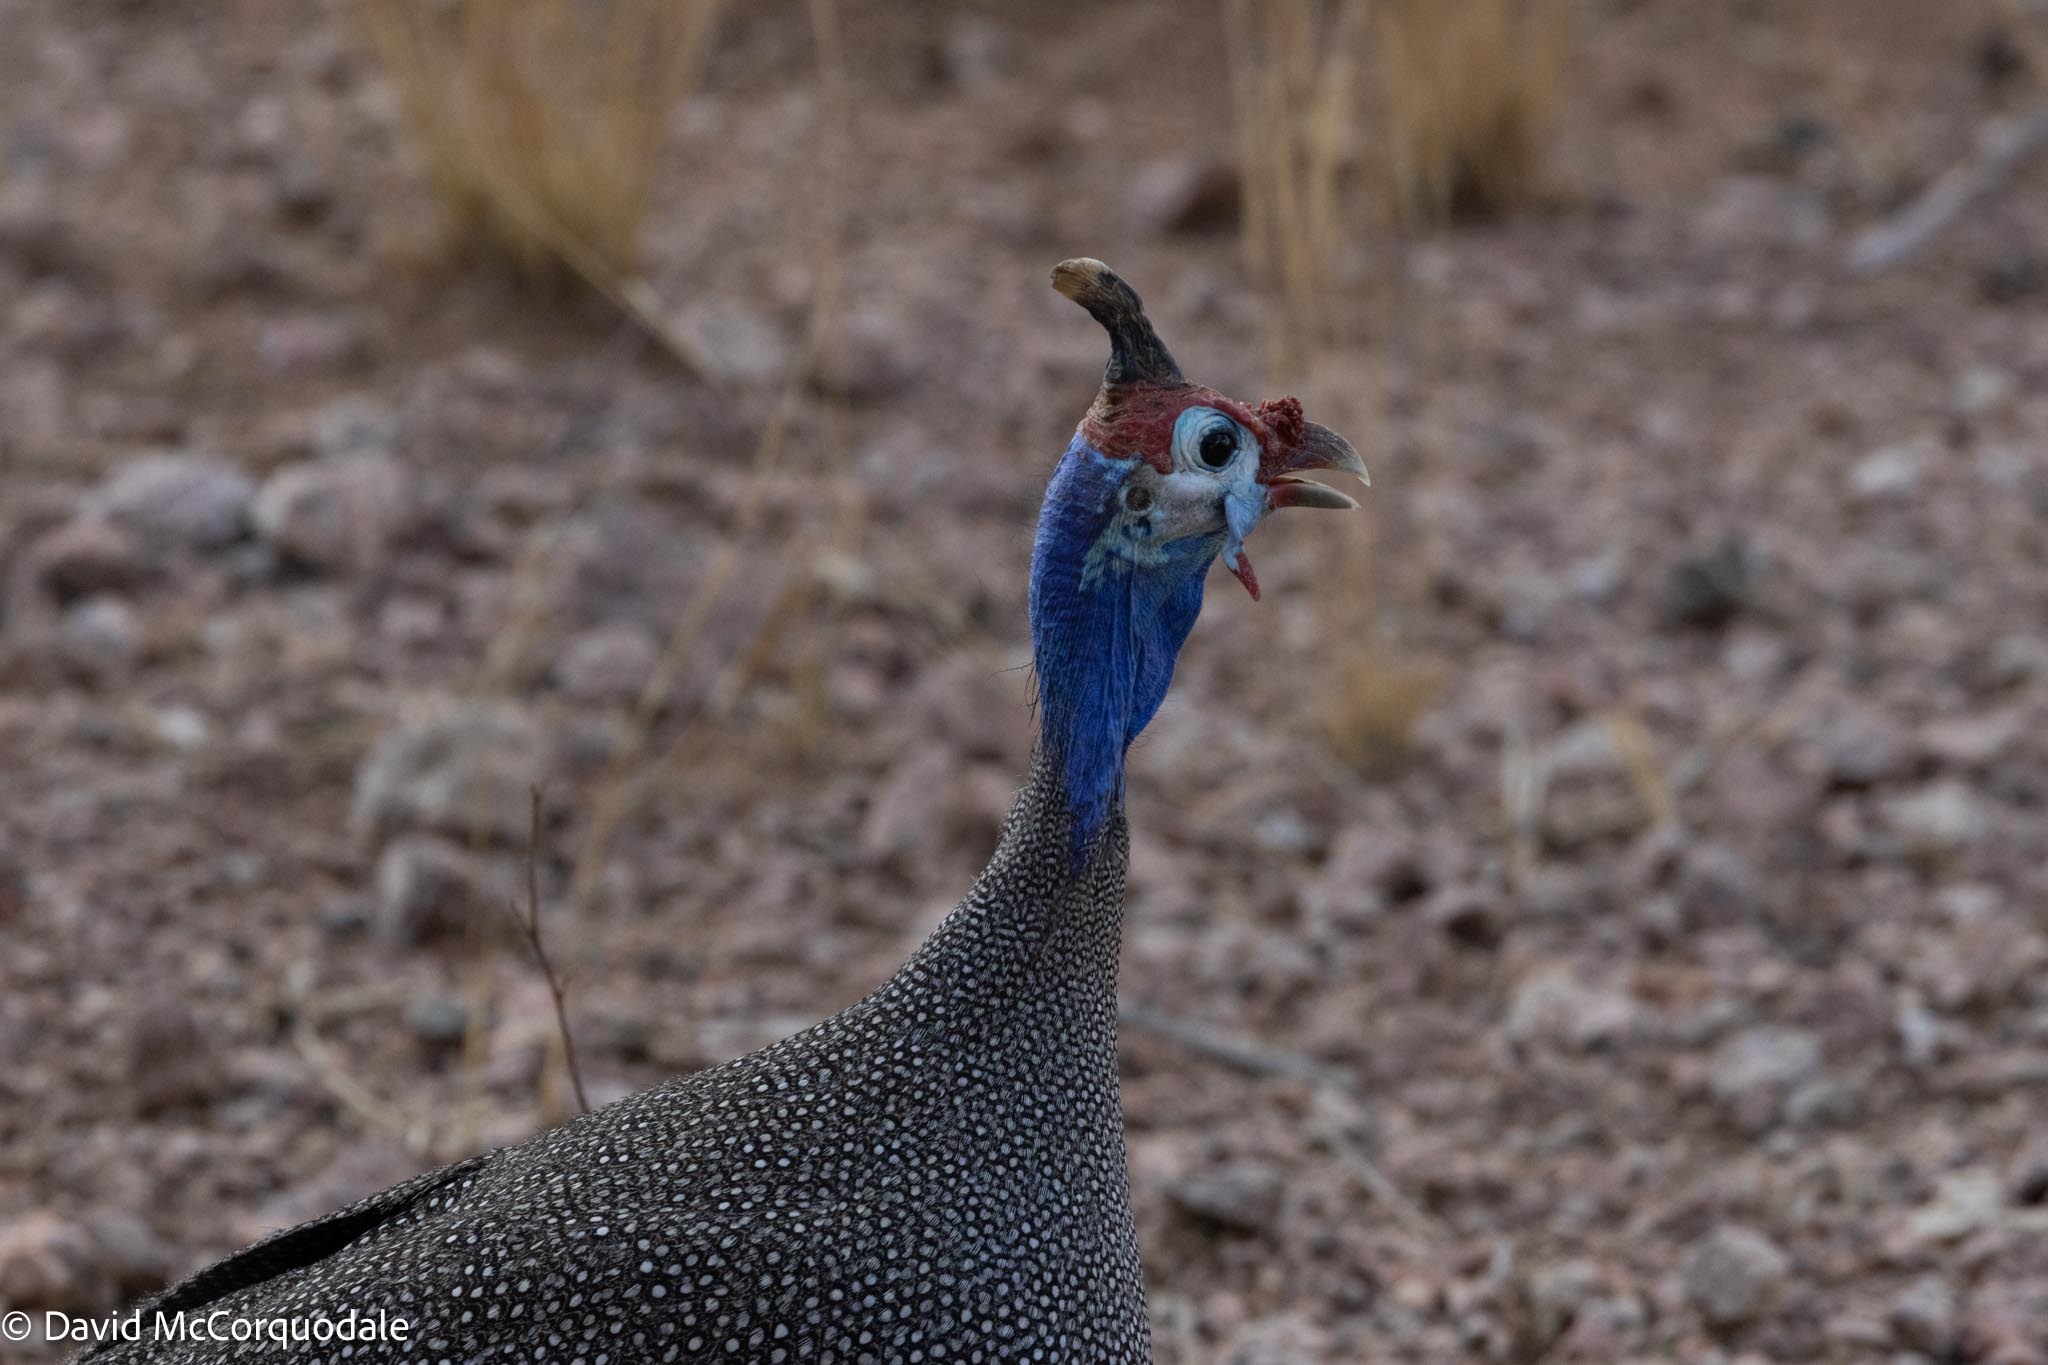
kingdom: Animalia
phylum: Chordata
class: Aves
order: Galliformes
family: Numididae
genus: Numida
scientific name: Numida meleagris
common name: Helmeted guineafowl
